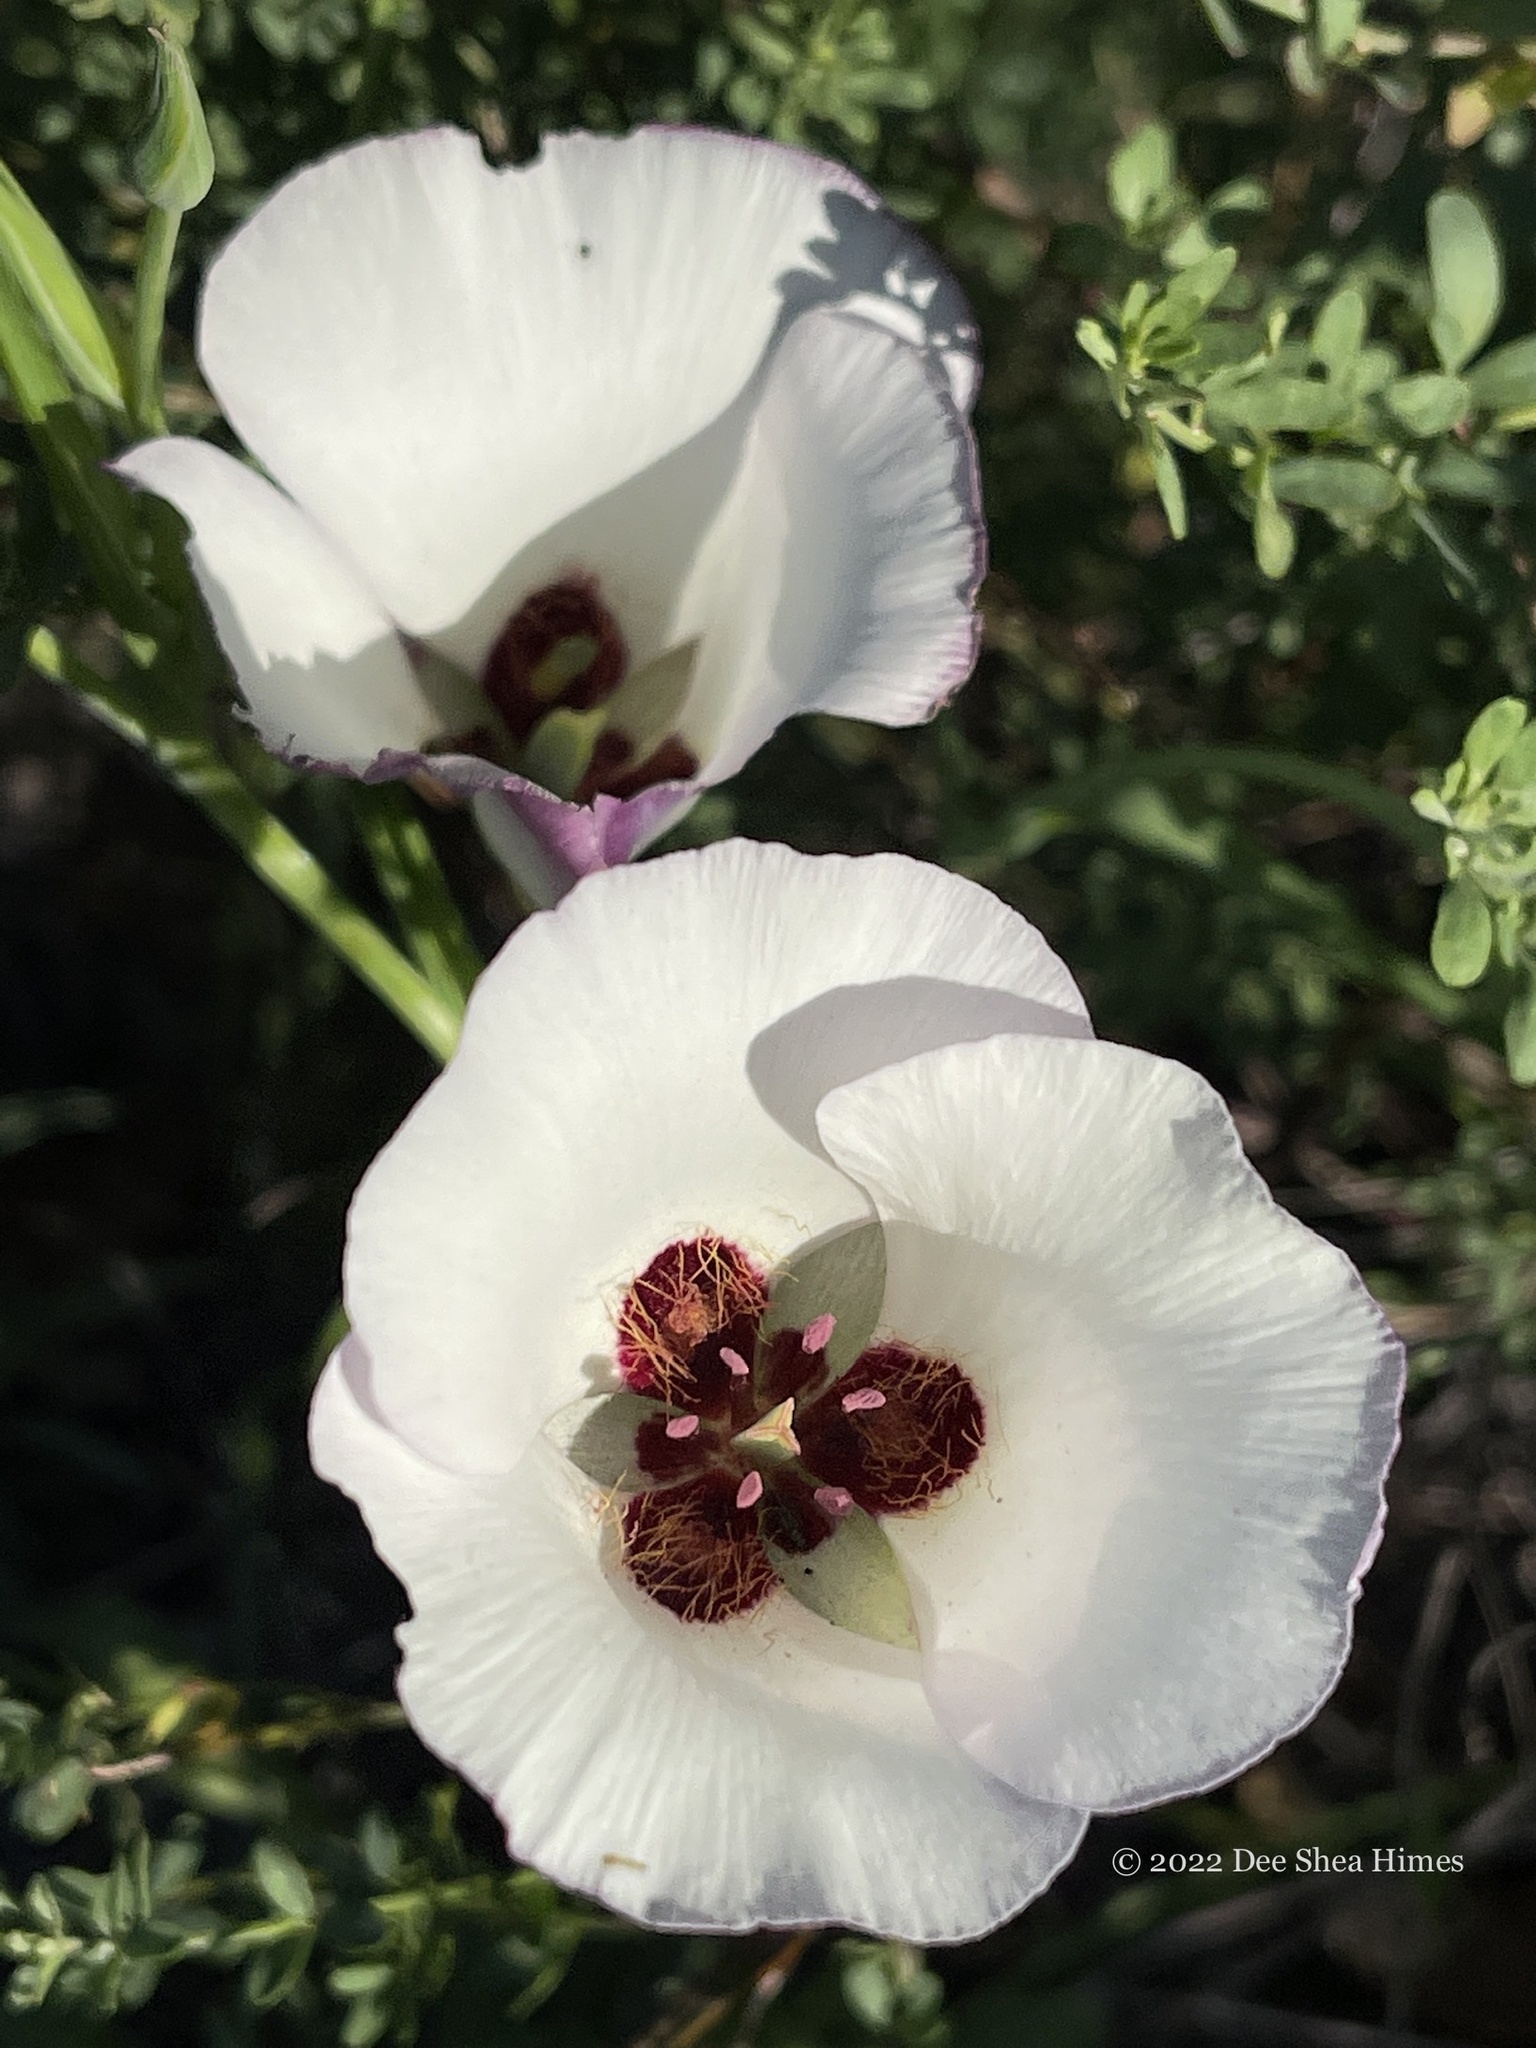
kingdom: Plantae
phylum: Tracheophyta
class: Liliopsida
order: Liliales
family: Liliaceae
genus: Calochortus
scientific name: Calochortus catalinae
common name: Catalina mariposa-lily
